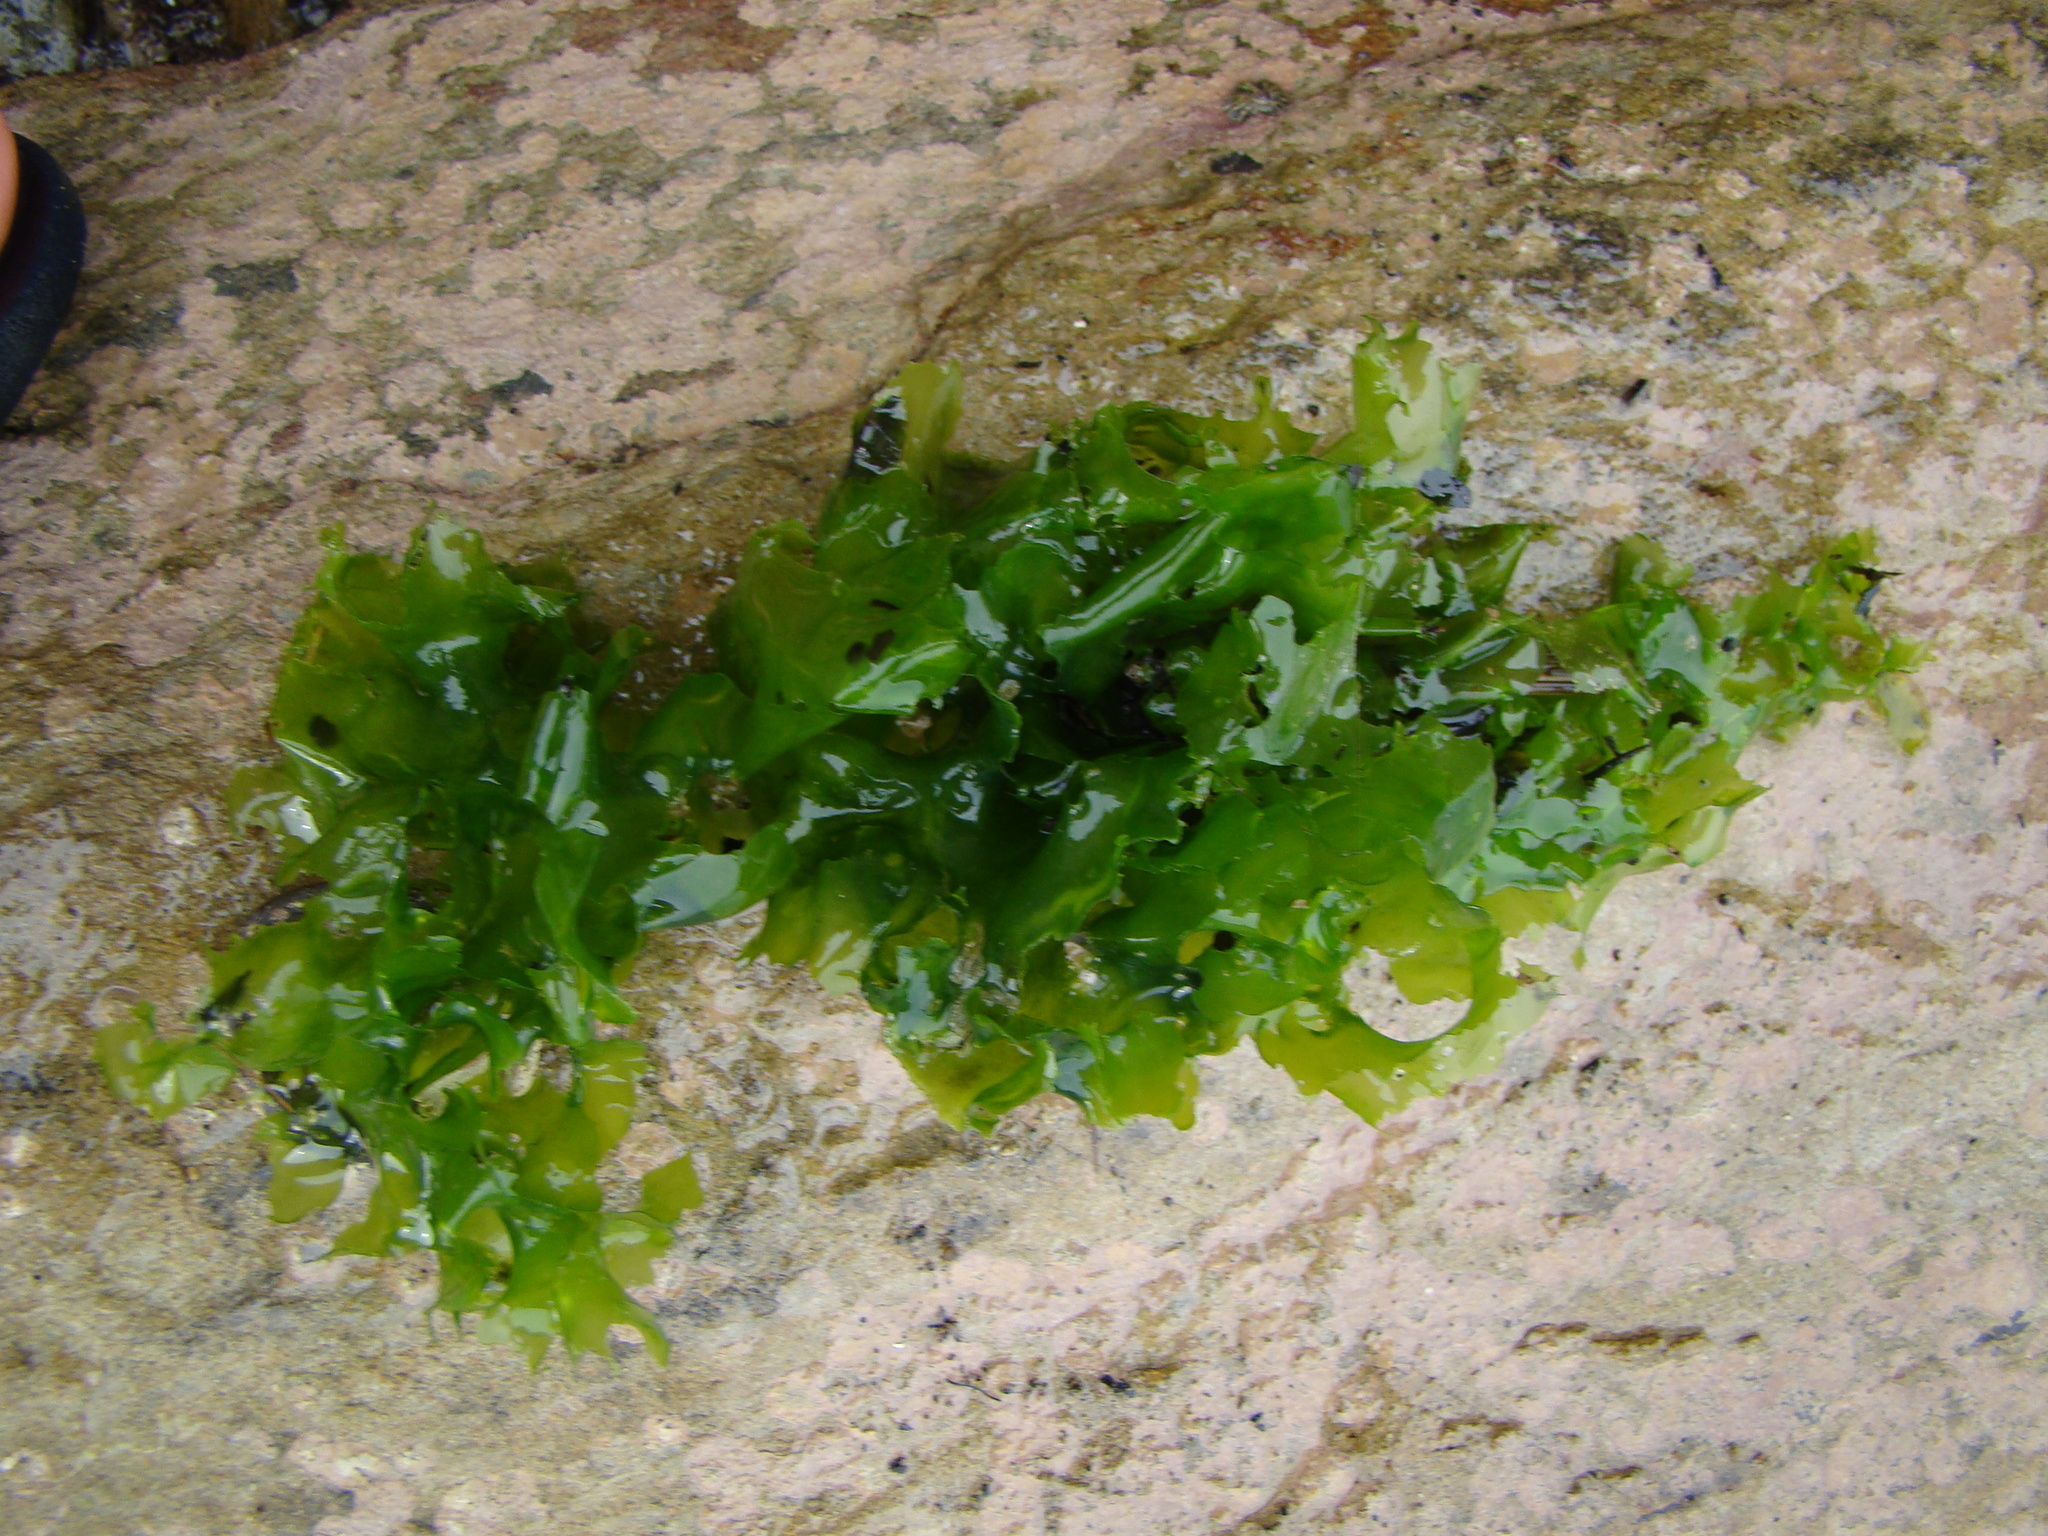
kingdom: Plantae
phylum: Chlorophyta
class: Ulvophyceae
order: Ulvales
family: Ulvaceae
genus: Ulva
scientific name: Ulva
